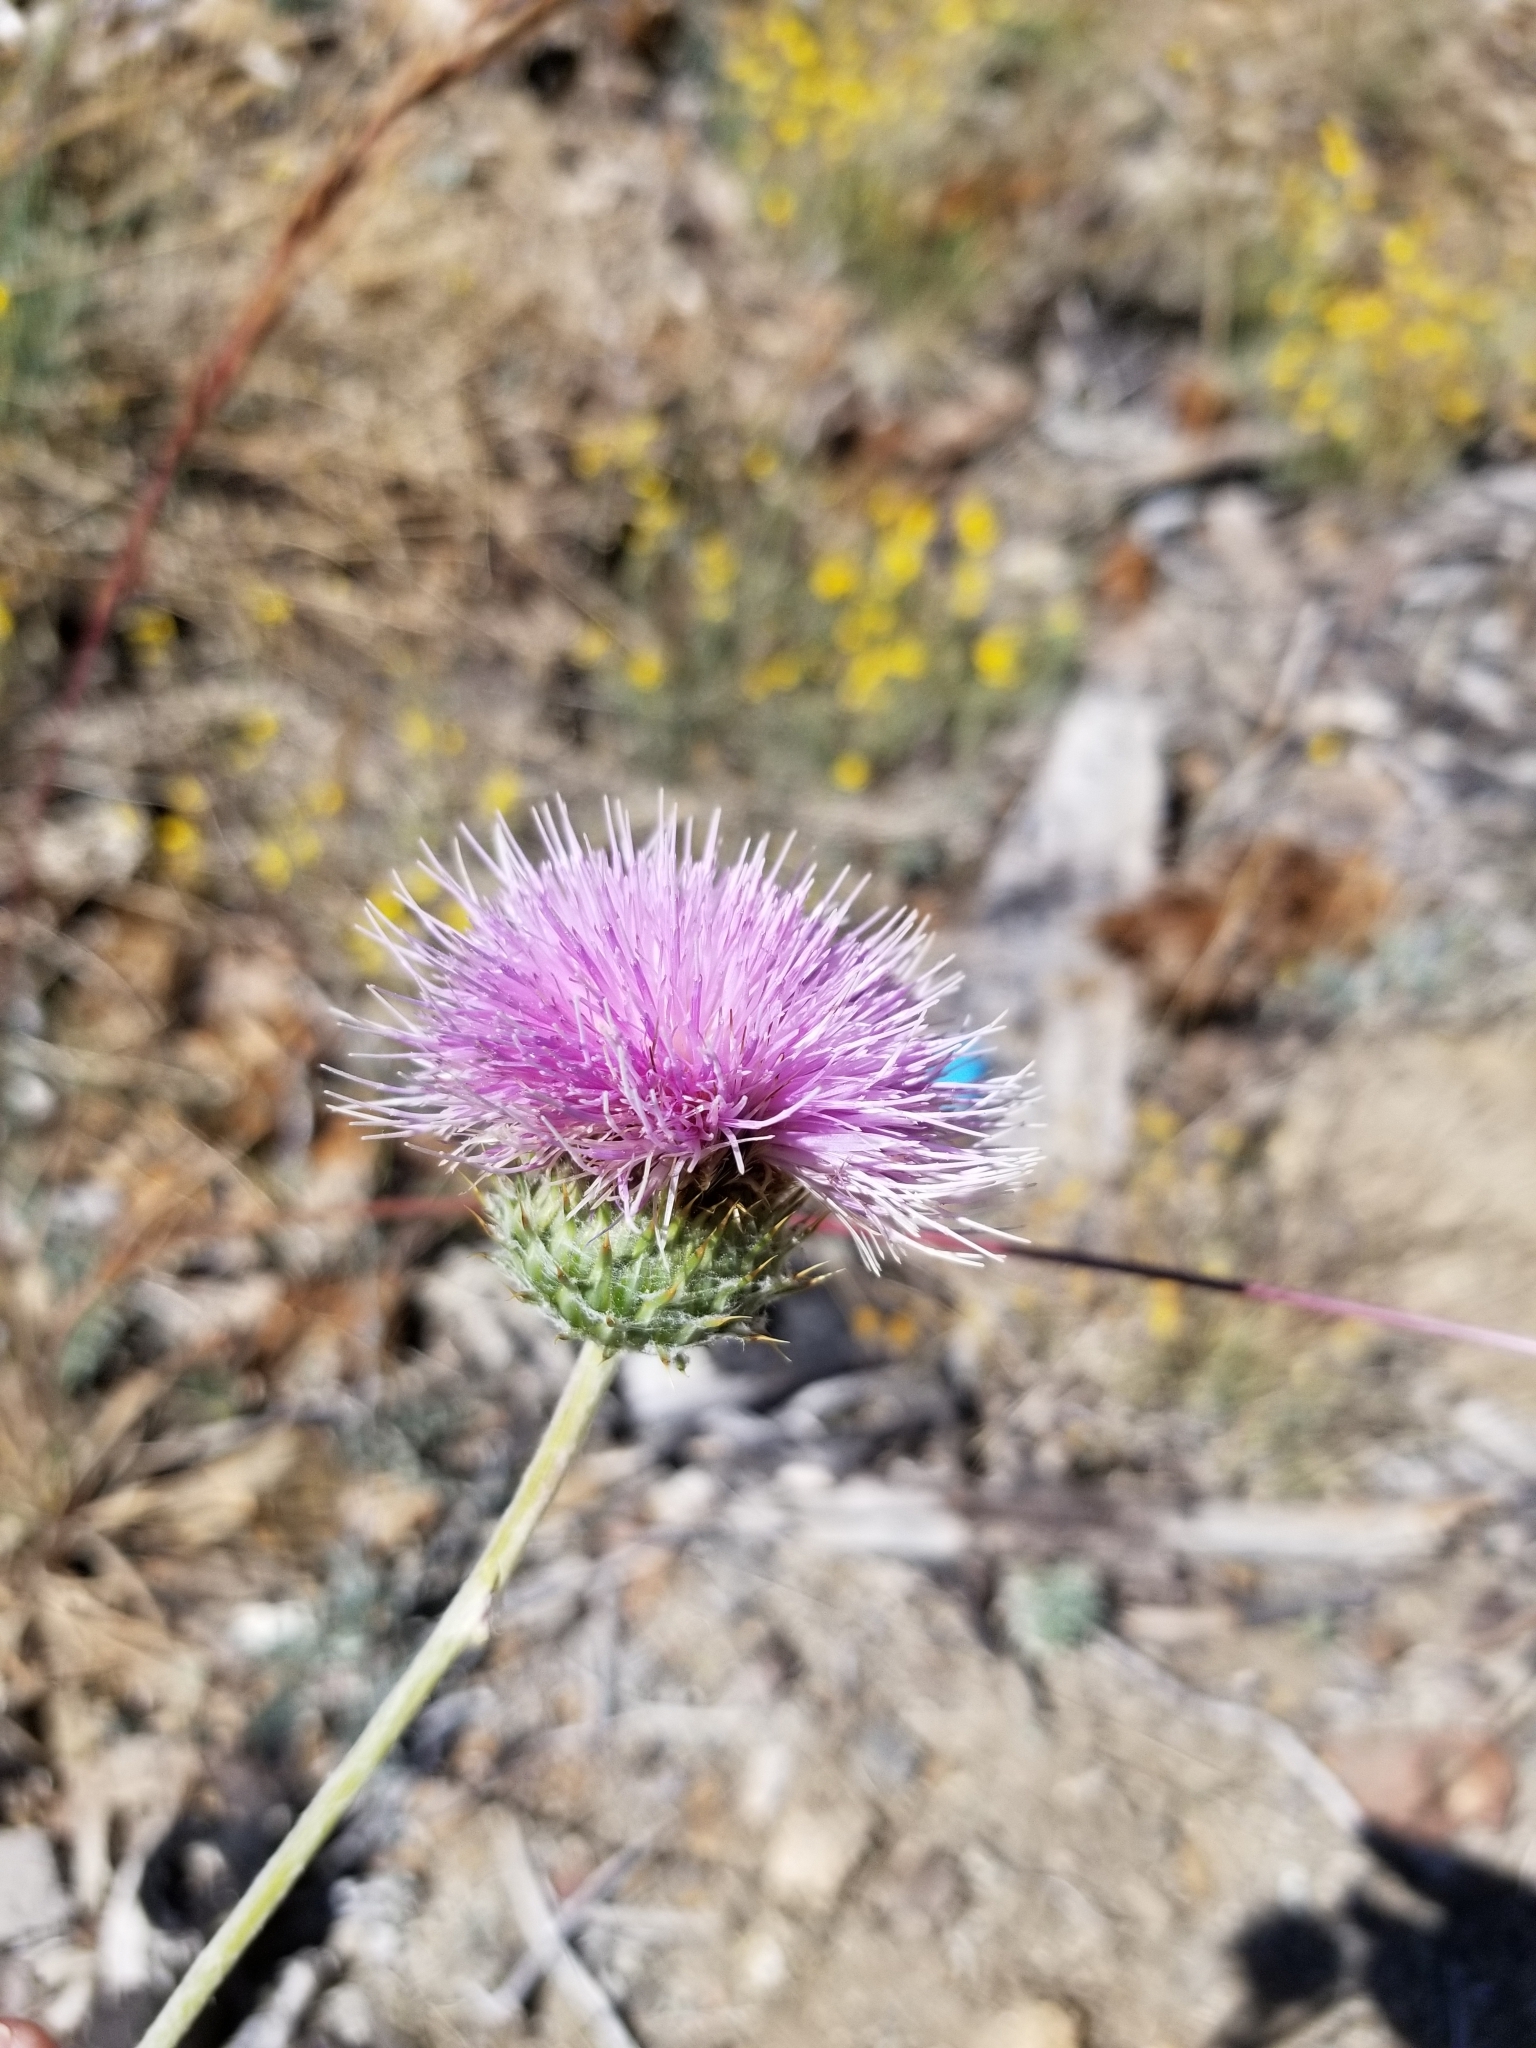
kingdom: Plantae
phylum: Tracheophyta
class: Magnoliopsida
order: Asterales
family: Asteraceae
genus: Cirsium
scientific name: Cirsium occidentale
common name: Western thistle
